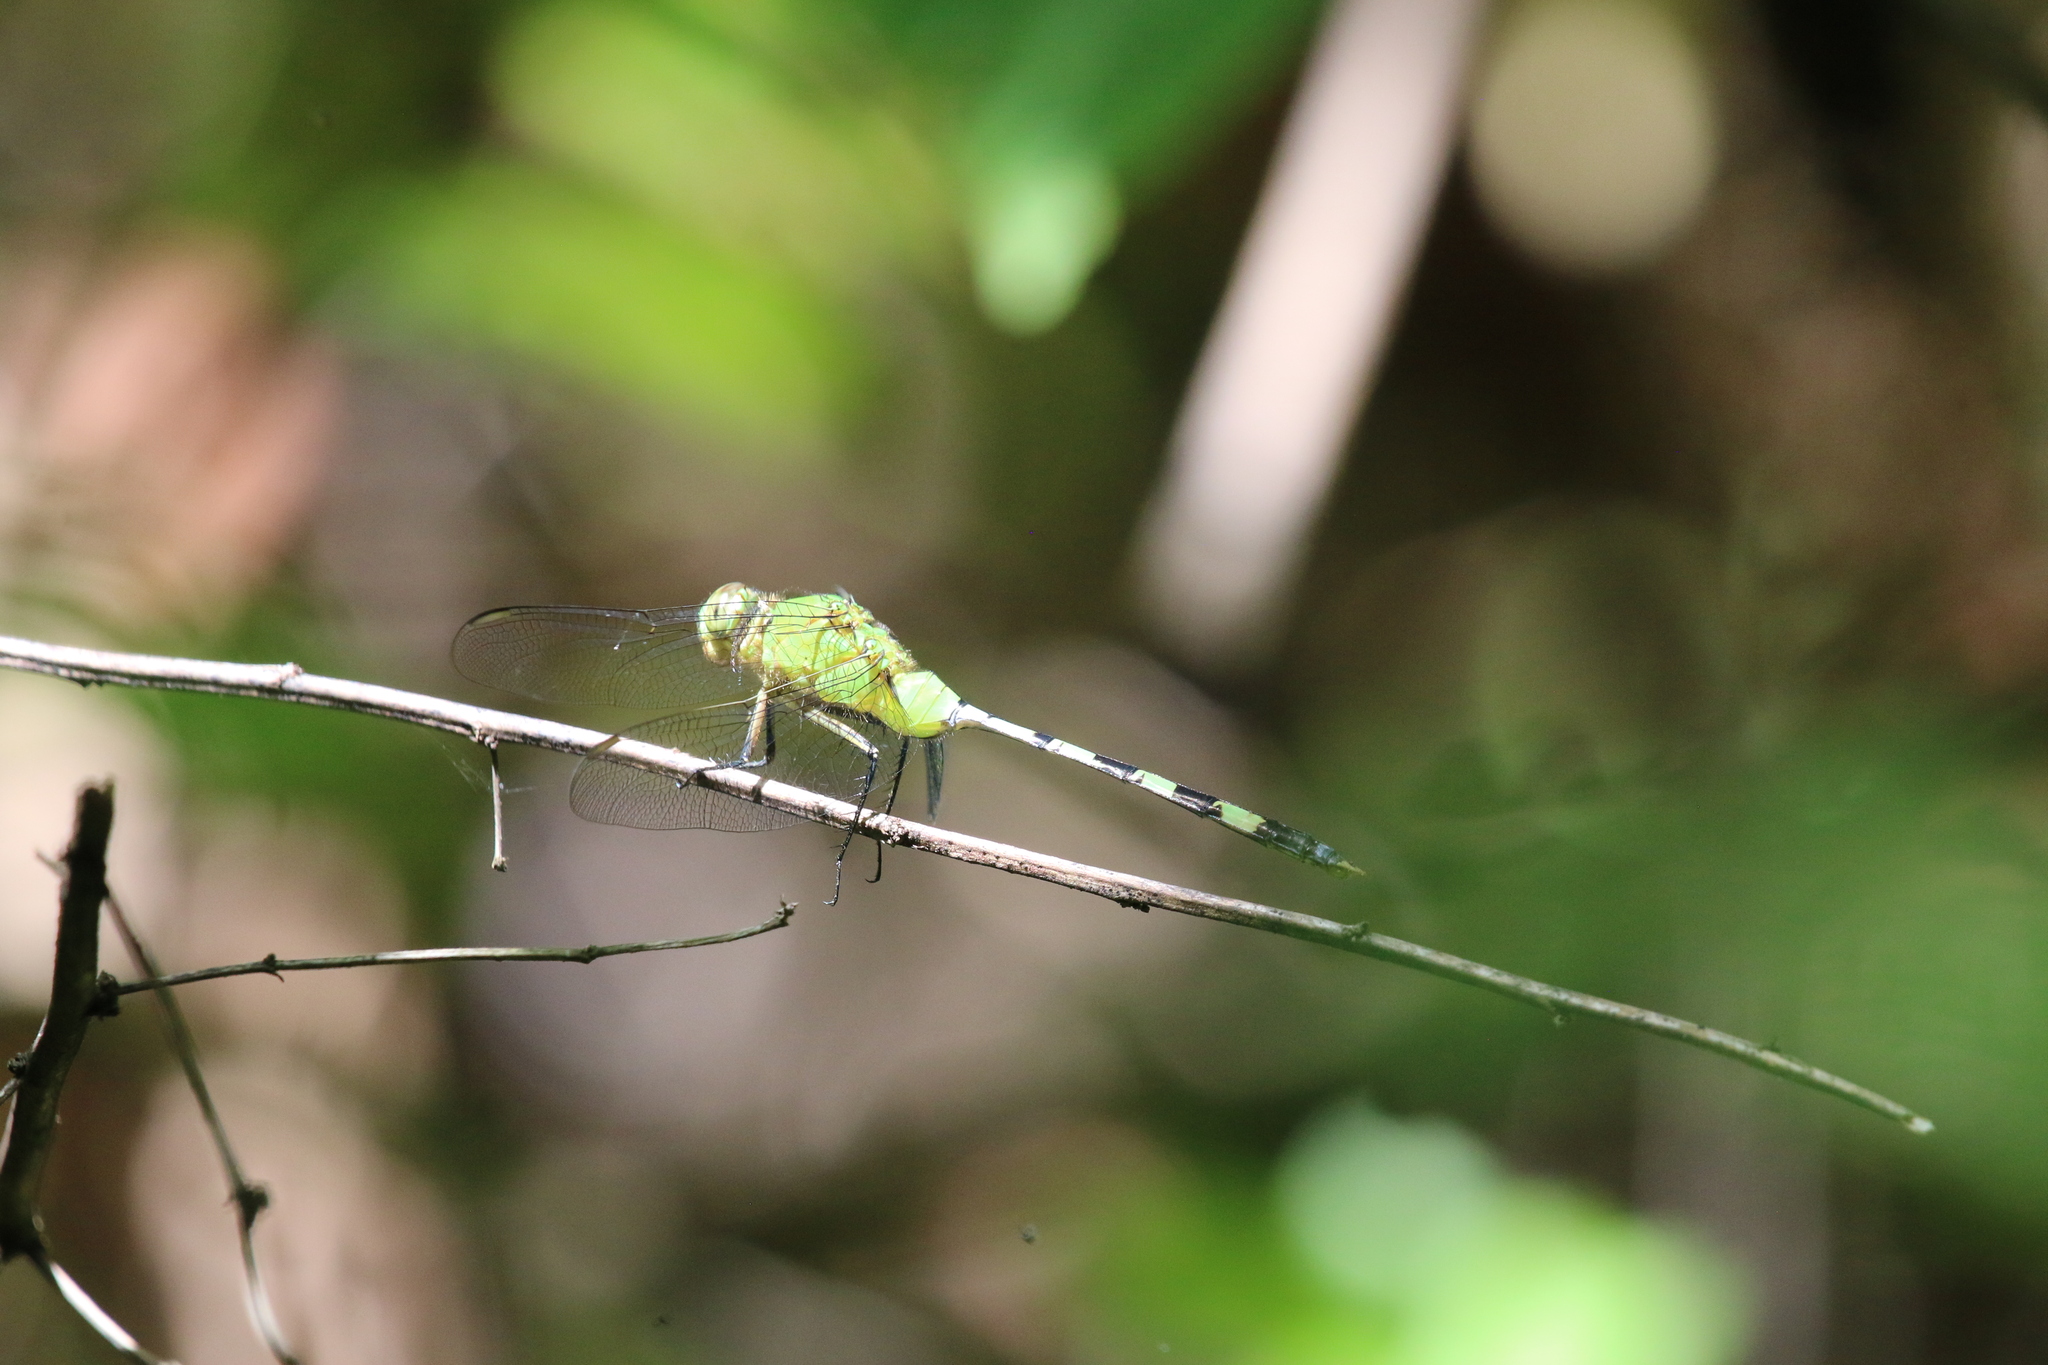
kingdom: Animalia
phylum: Arthropoda
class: Insecta
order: Odonata
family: Libellulidae
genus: Erythemis
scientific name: Erythemis vesiculosa
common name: Great pondhawk
